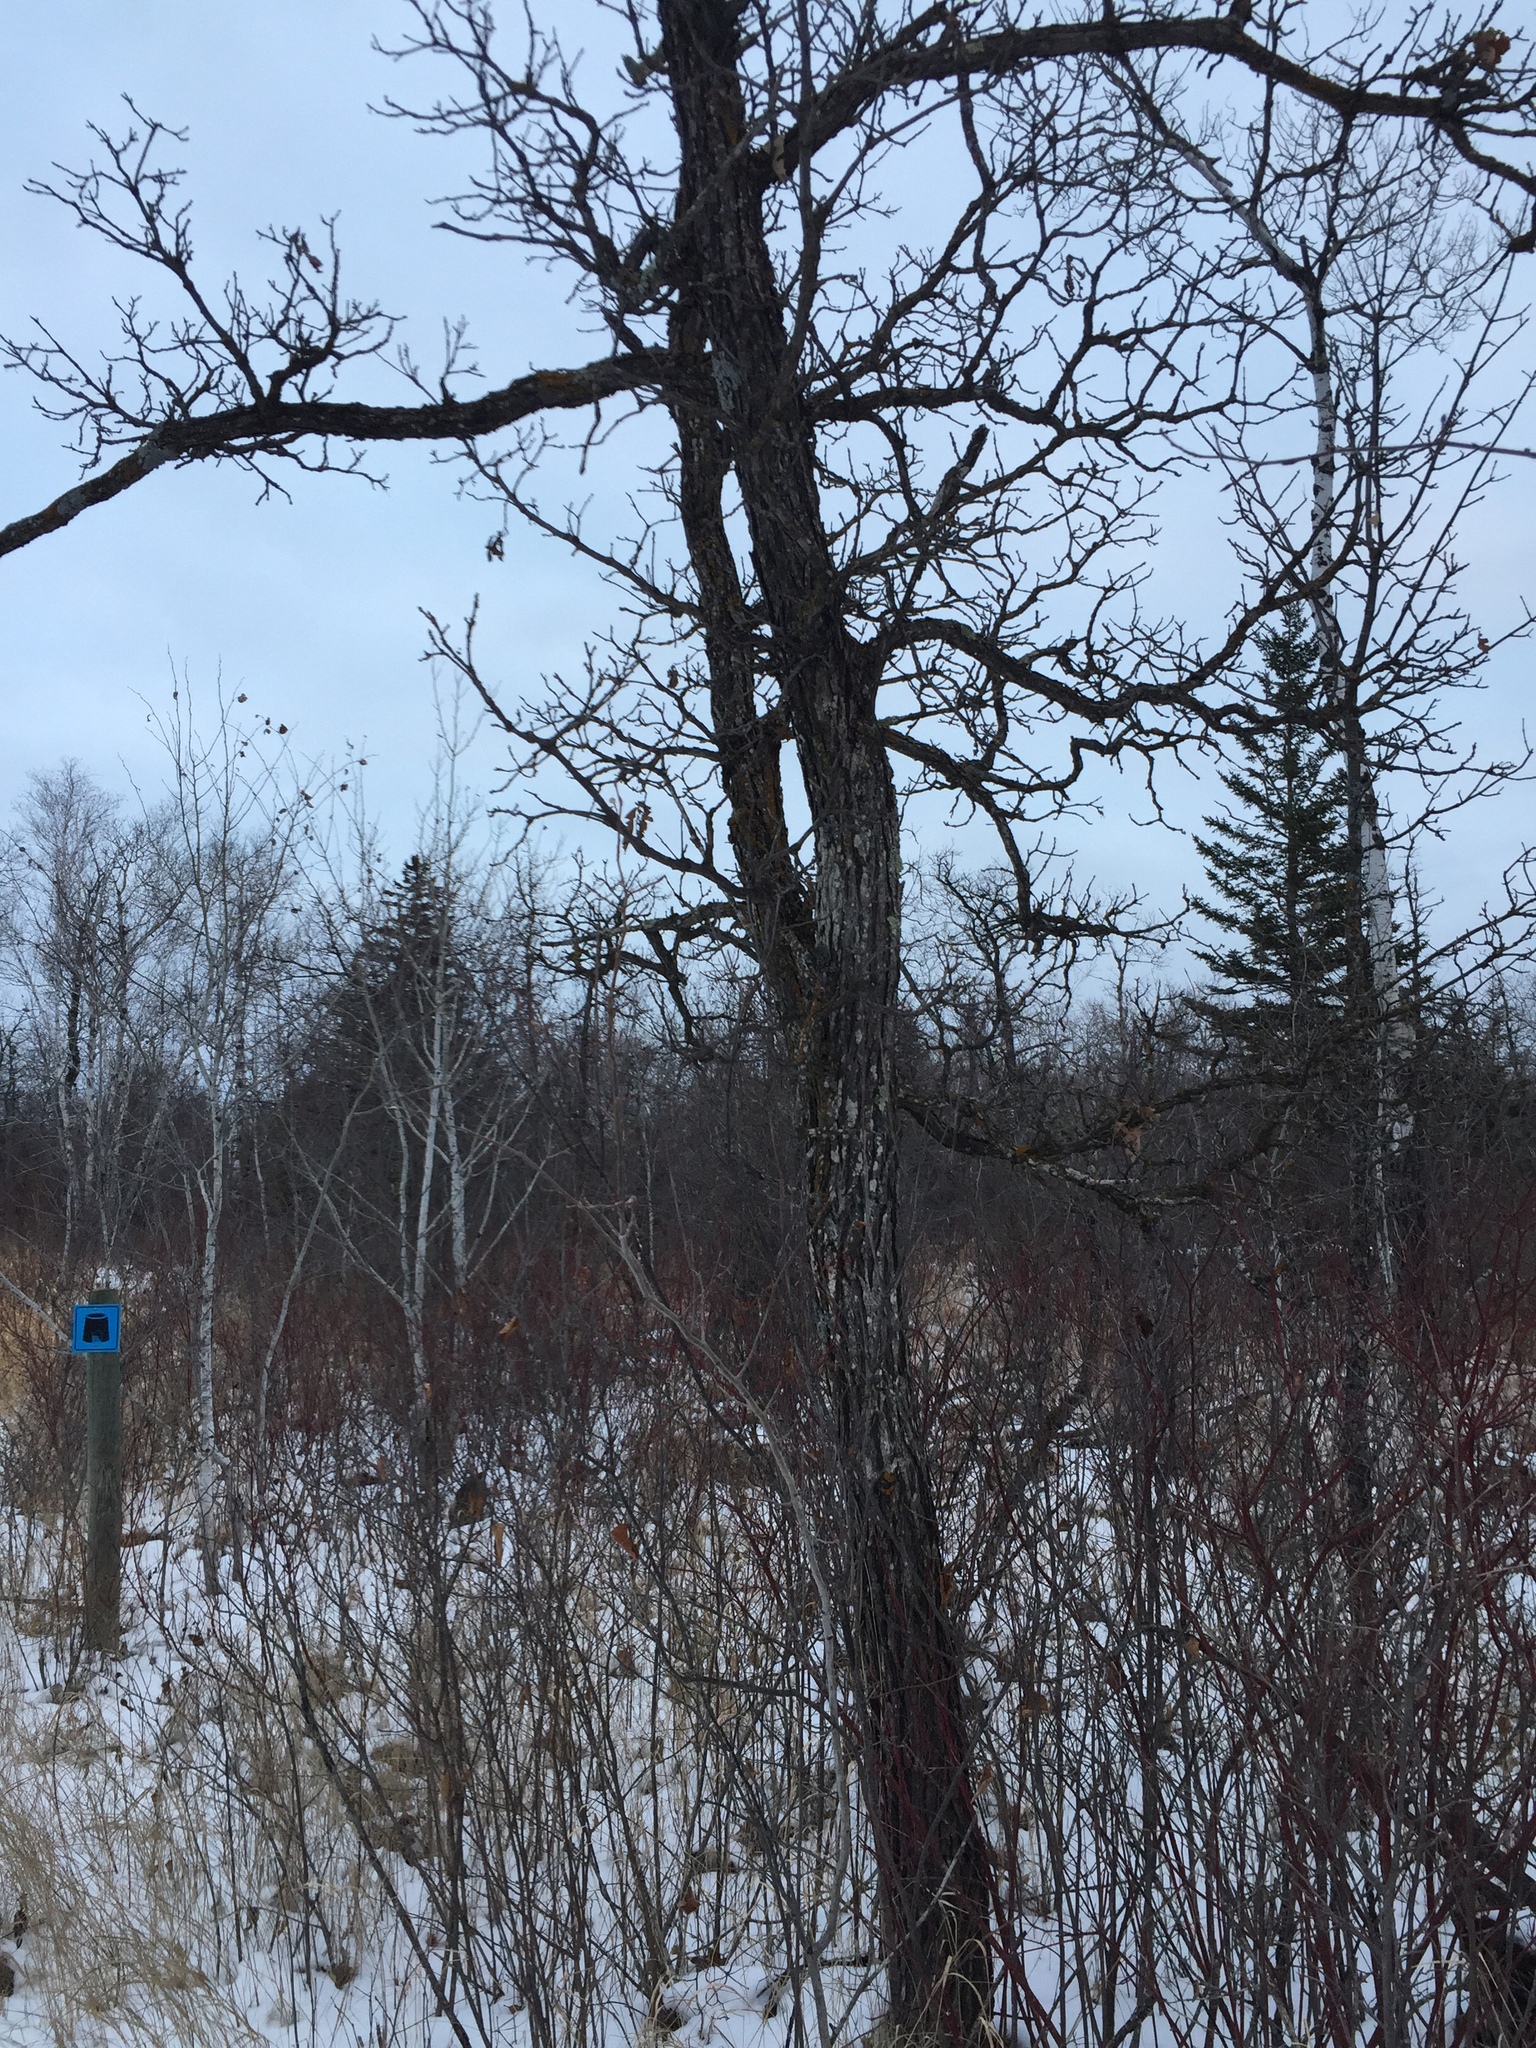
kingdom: Plantae
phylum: Tracheophyta
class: Magnoliopsida
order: Fagales
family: Fagaceae
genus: Quercus
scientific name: Quercus macrocarpa
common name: Bur oak
